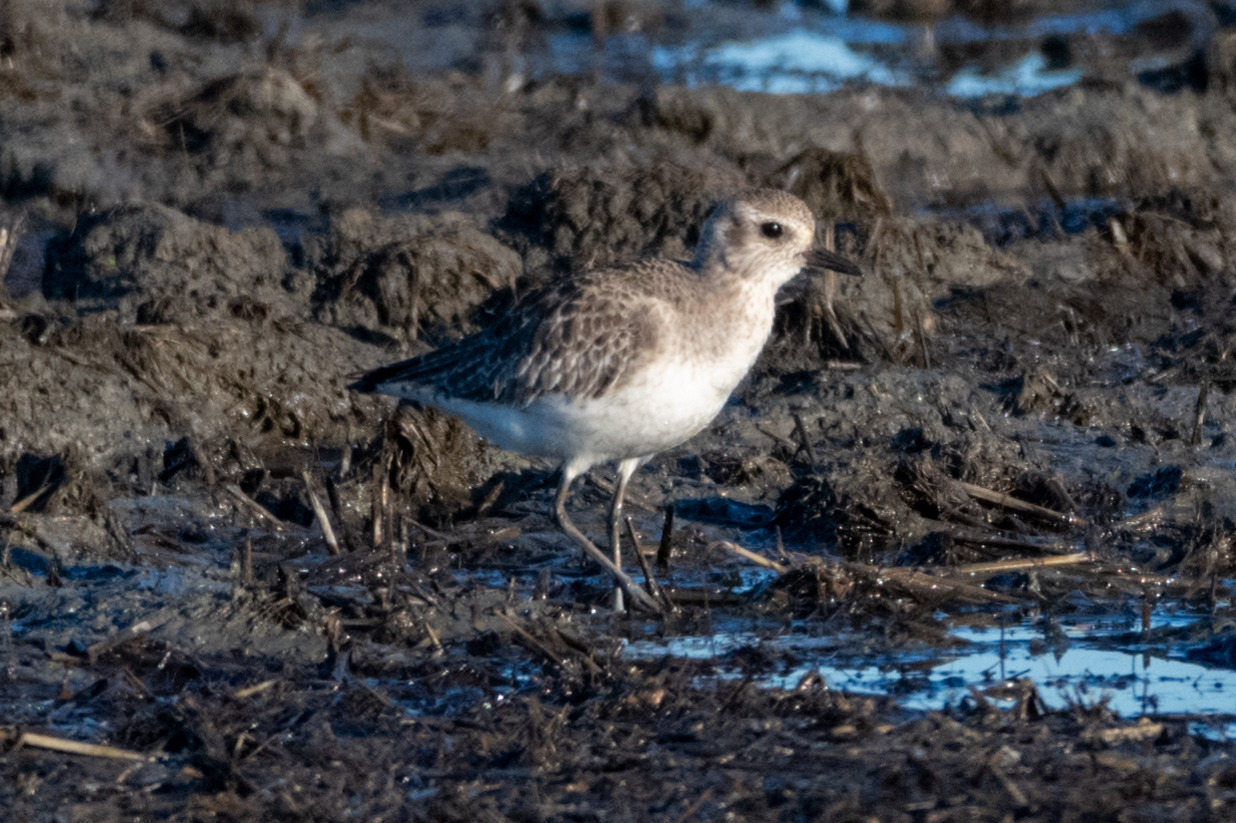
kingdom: Animalia
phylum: Chordata
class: Aves
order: Charadriiformes
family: Charadriidae
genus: Pluvialis
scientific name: Pluvialis squatarola
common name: Grey plover
